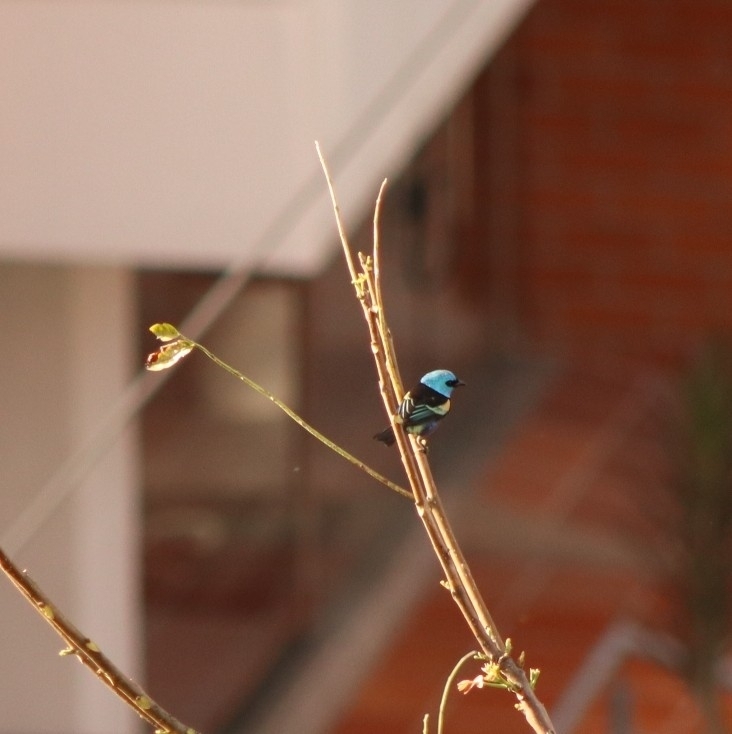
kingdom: Animalia
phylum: Chordata
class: Aves
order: Passeriformes
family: Thraupidae
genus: Stilpnia
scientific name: Stilpnia cyanicollis
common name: Blue-necked tanager
